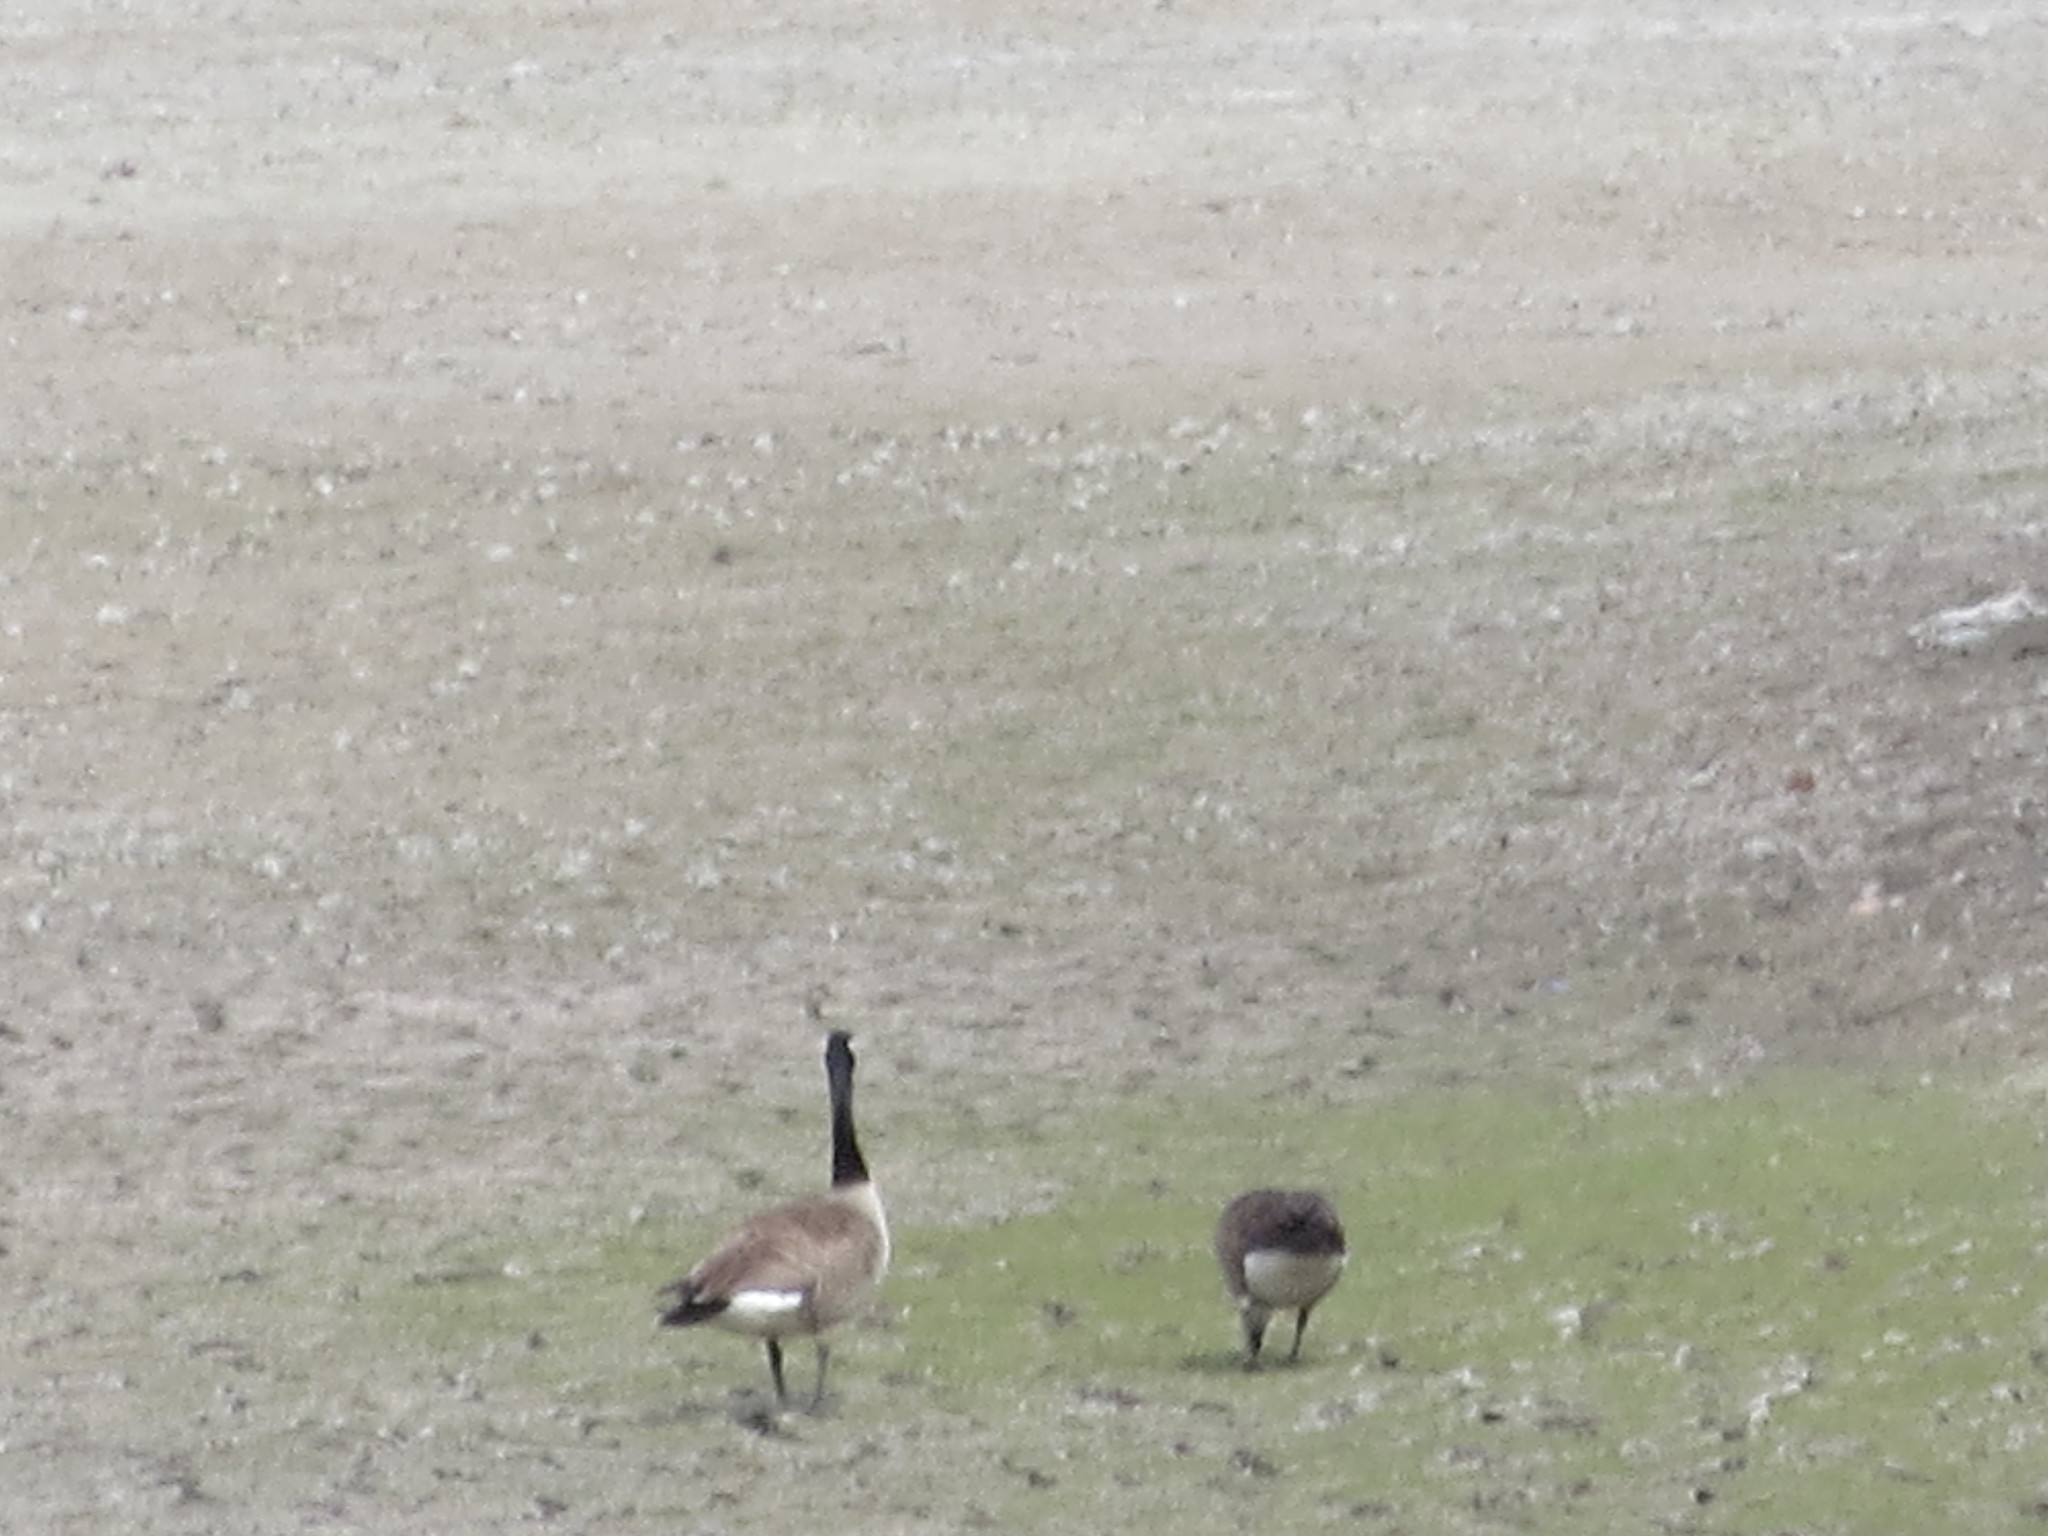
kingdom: Animalia
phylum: Chordata
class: Aves
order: Anseriformes
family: Anatidae
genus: Branta
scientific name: Branta canadensis
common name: Canada goose
